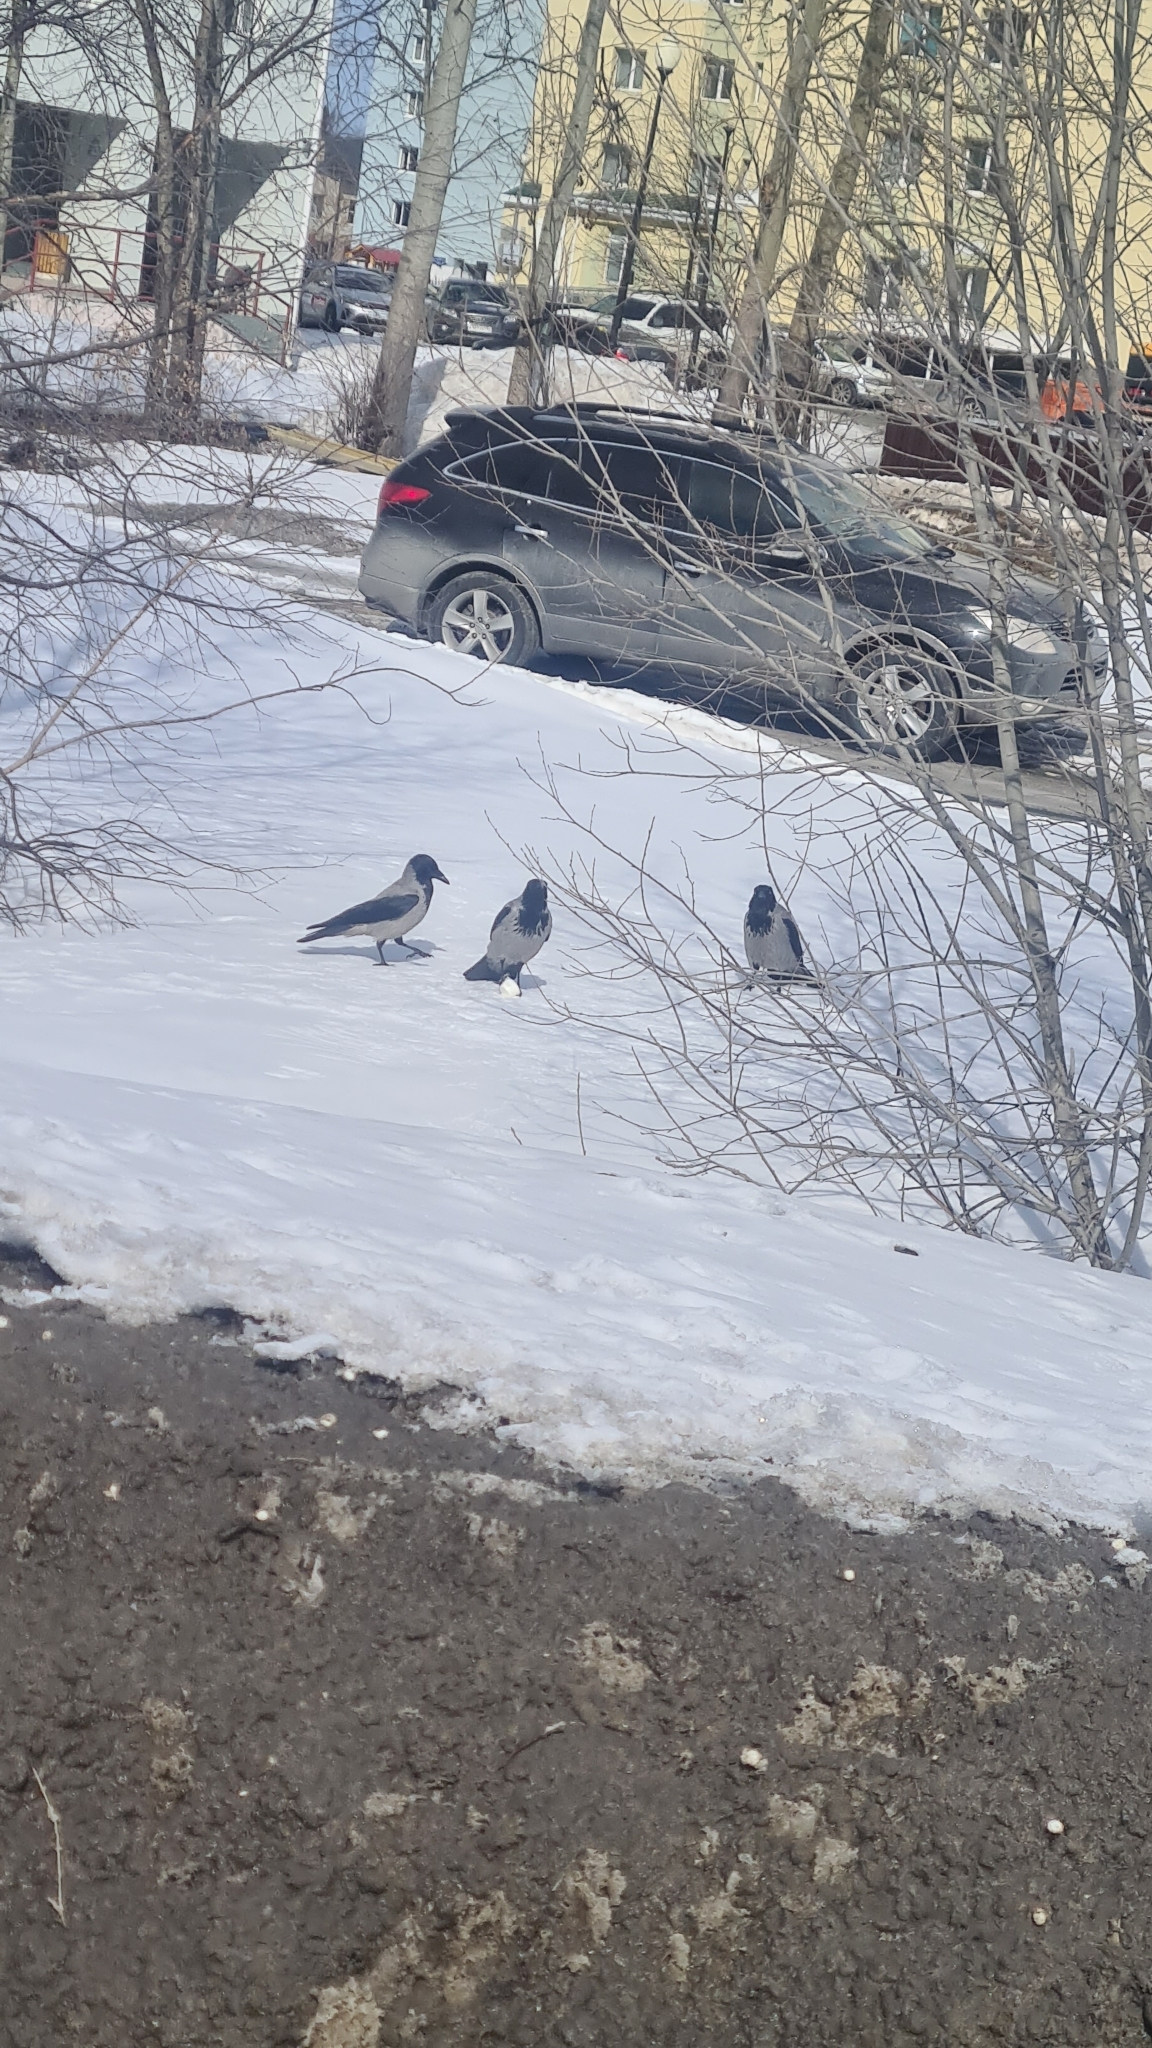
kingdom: Animalia
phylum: Chordata
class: Aves
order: Passeriformes
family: Corvidae
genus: Corvus
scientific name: Corvus cornix
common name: Hooded crow
